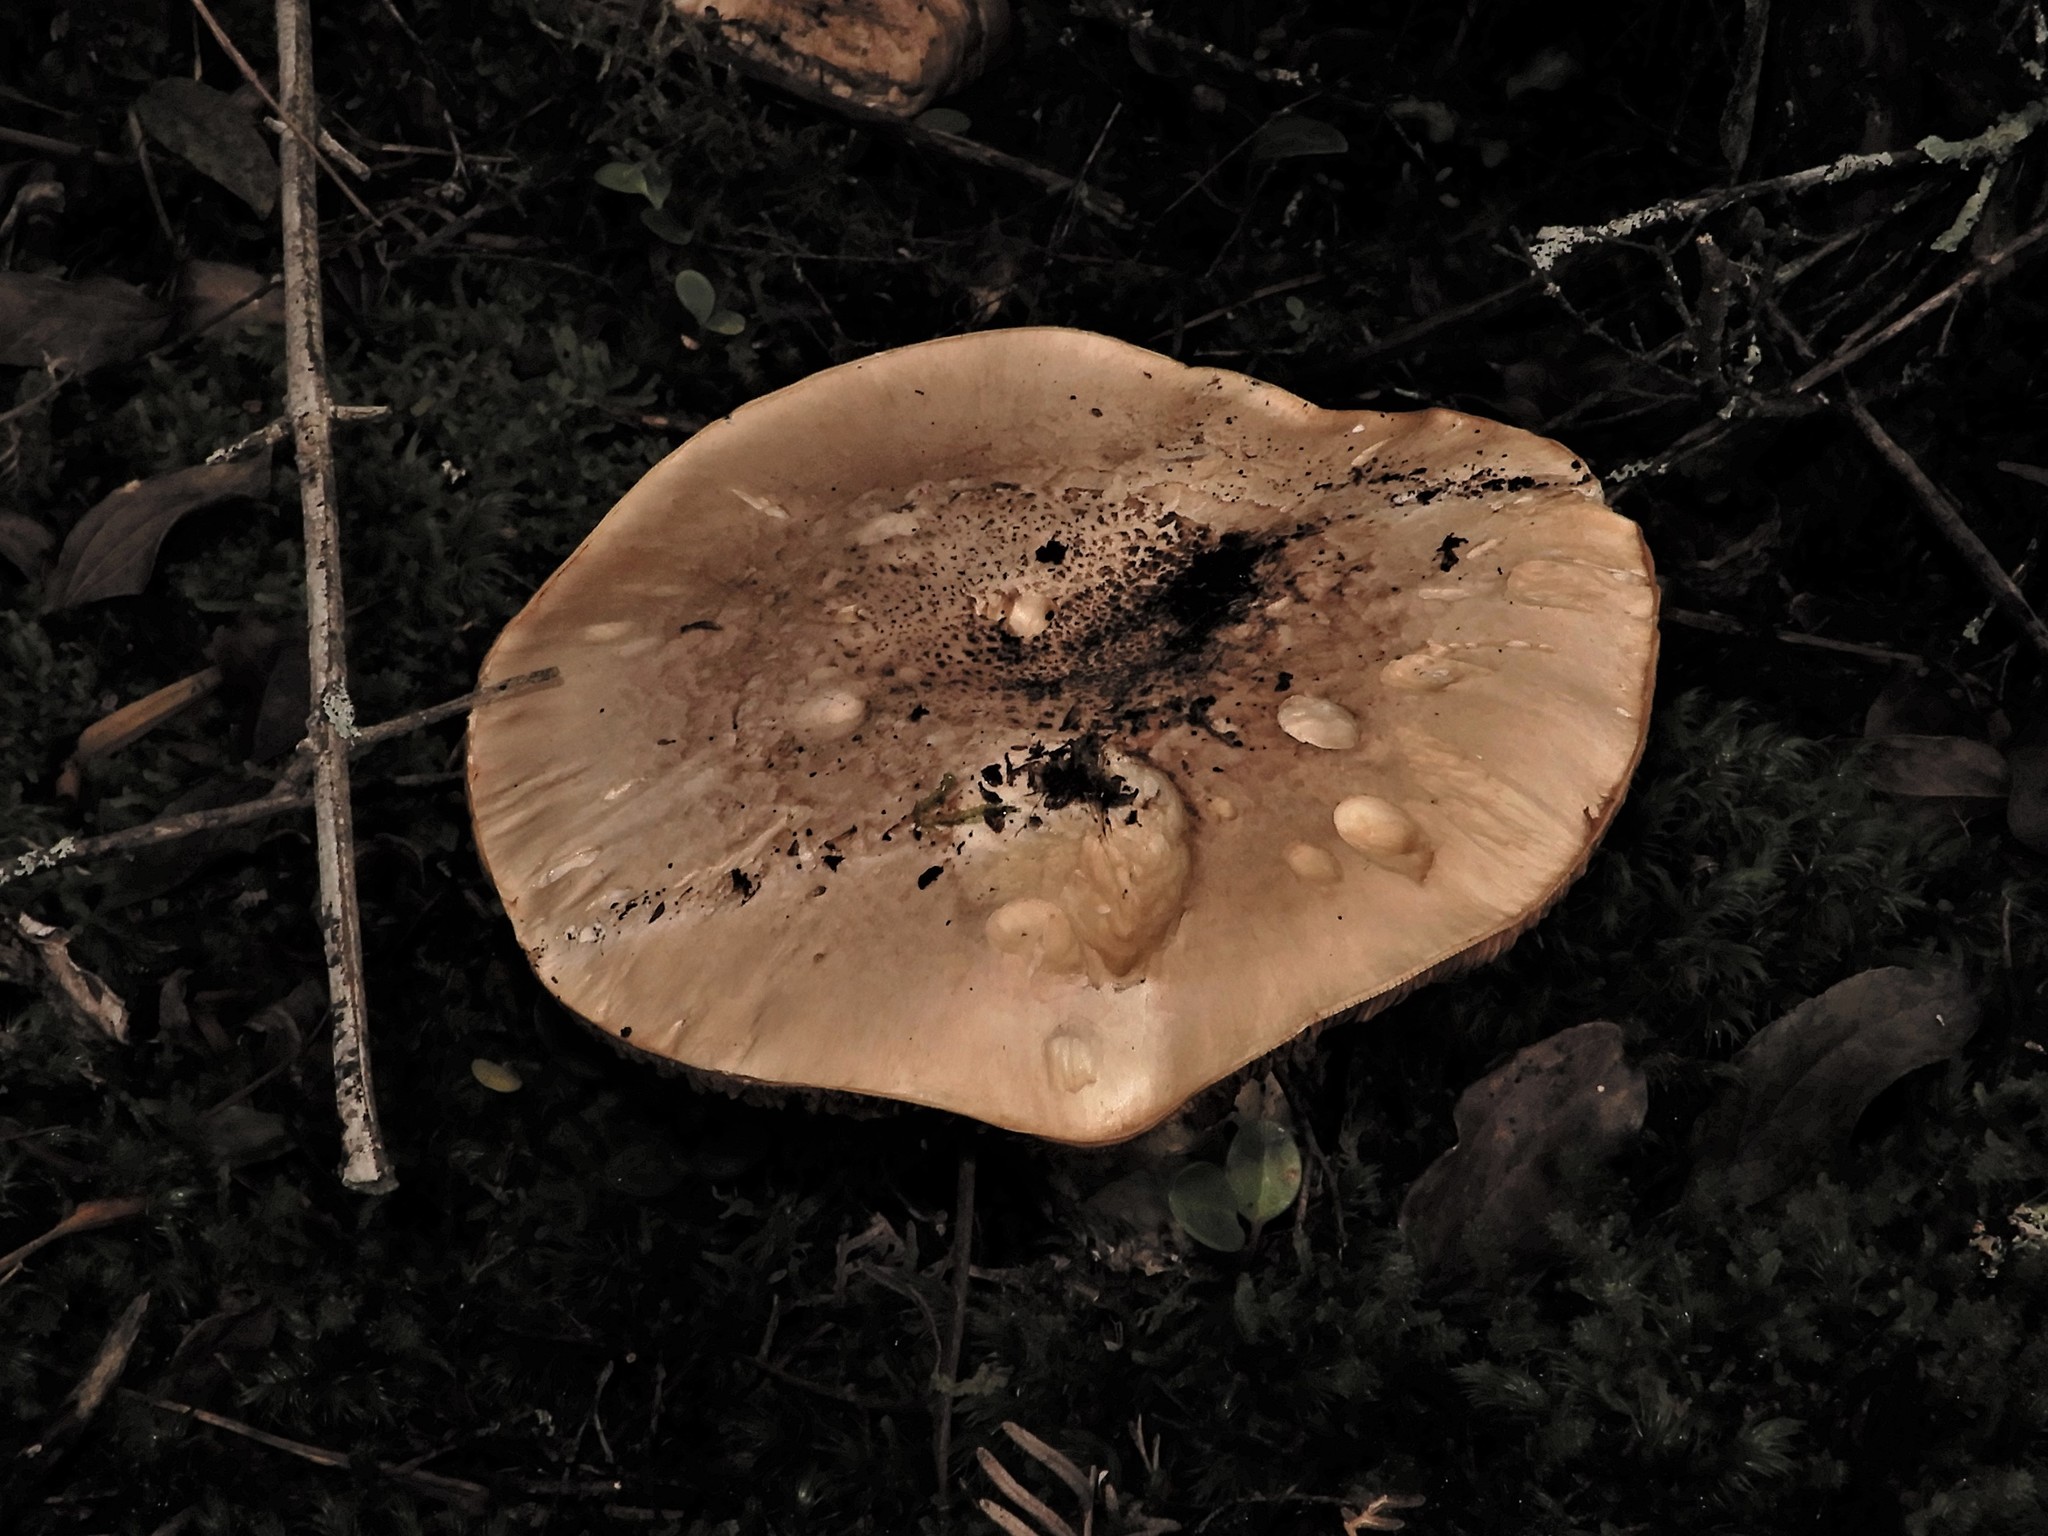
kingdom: Fungi
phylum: Basidiomycota
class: Agaricomycetes
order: Agaricales
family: Hymenogastraceae
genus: Hebeloma
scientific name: Hebeloma victoriense
